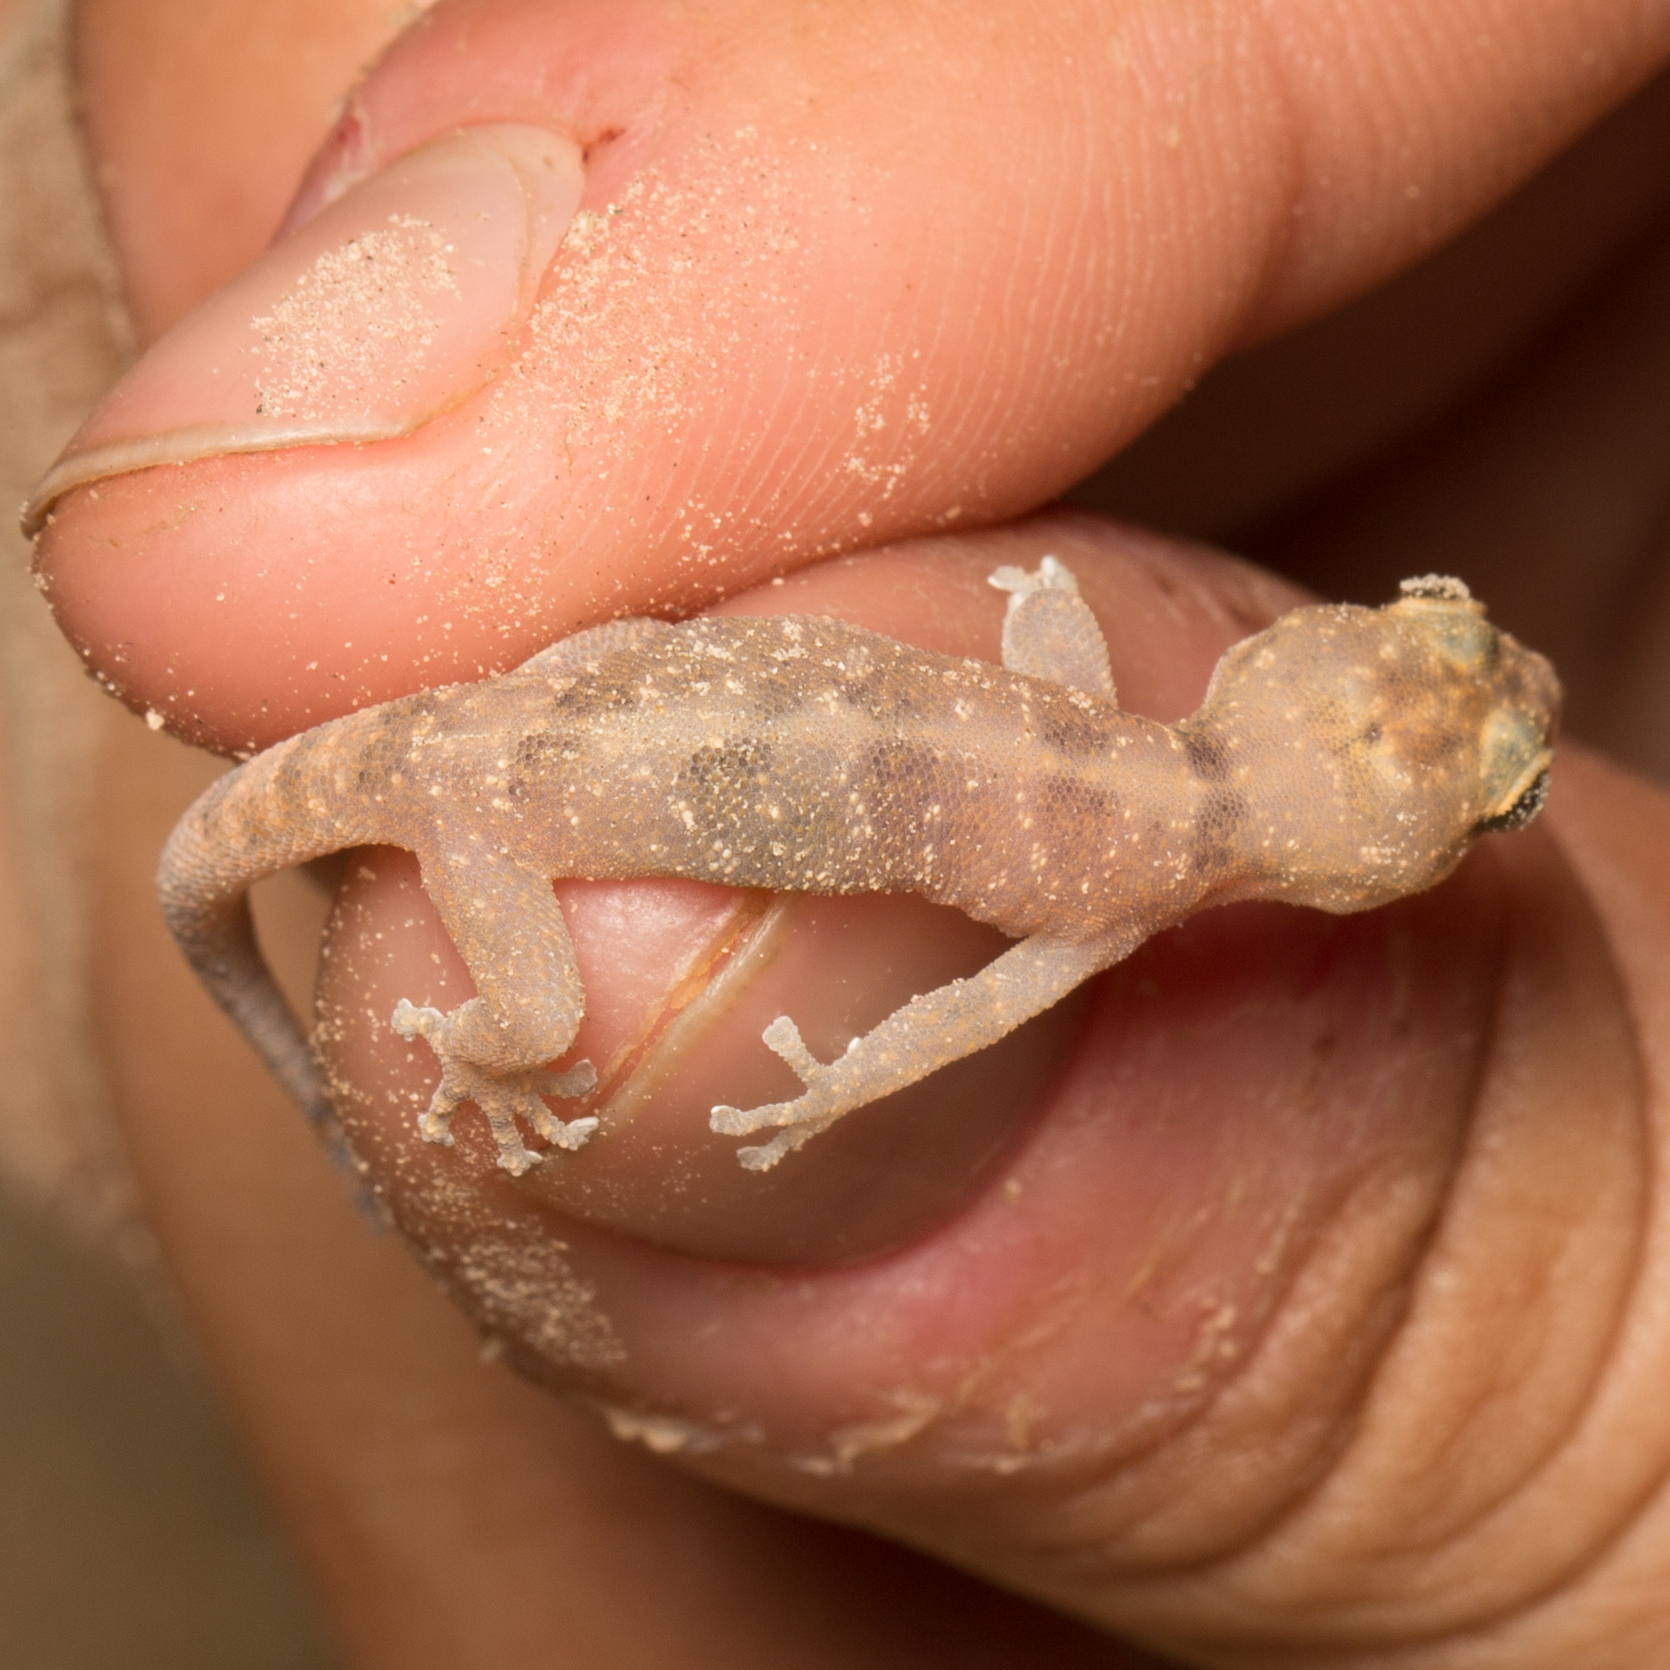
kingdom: Animalia
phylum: Chordata
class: Squamata
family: Phyllodactylidae
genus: Phyllodactylus
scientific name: Phyllodactylus unctus
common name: San lucan  gecko
